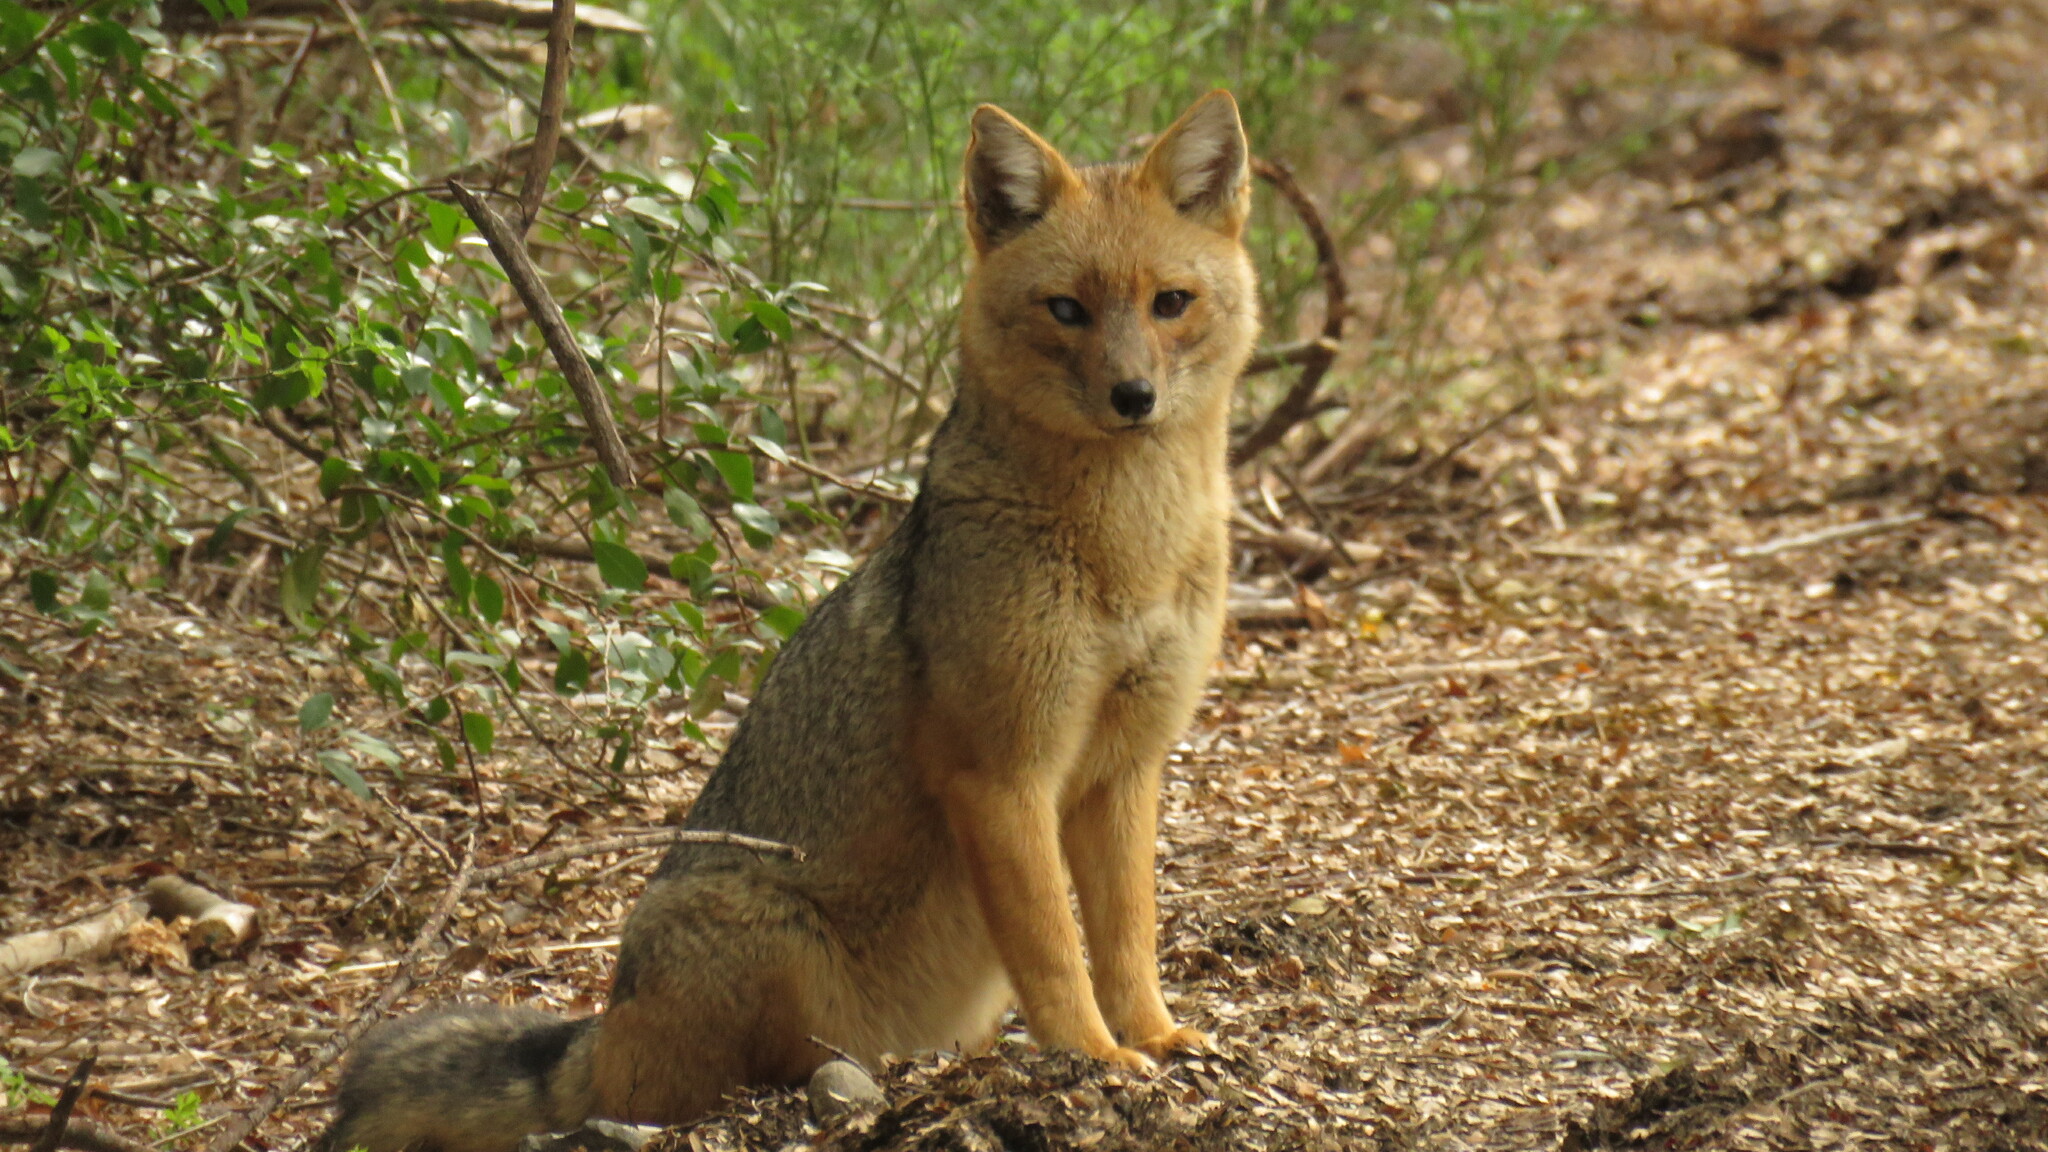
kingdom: Animalia
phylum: Chordata
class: Mammalia
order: Carnivora
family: Canidae
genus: Lycalopex
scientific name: Lycalopex culpaeus
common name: Culpeo
